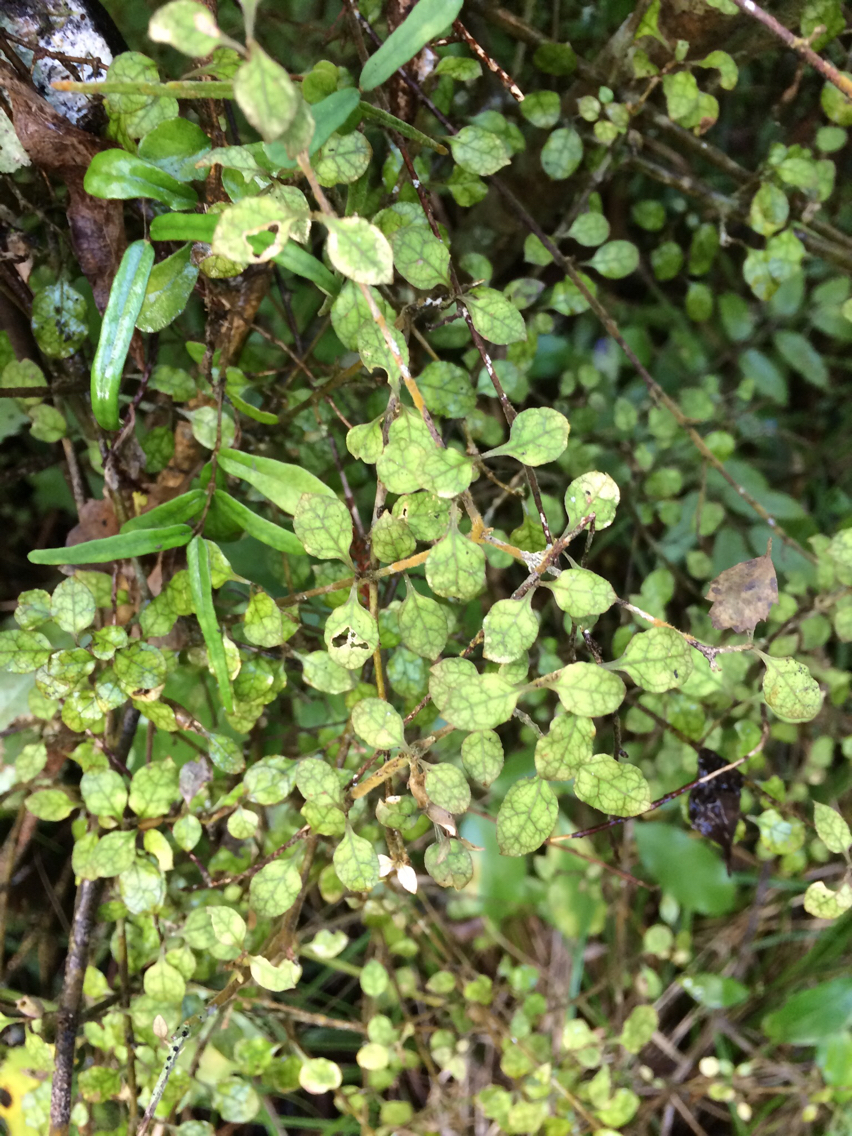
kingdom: Plantae
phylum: Tracheophyta
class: Magnoliopsida
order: Gentianales
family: Rubiaceae
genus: Coprosma
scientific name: Coprosma areolata
